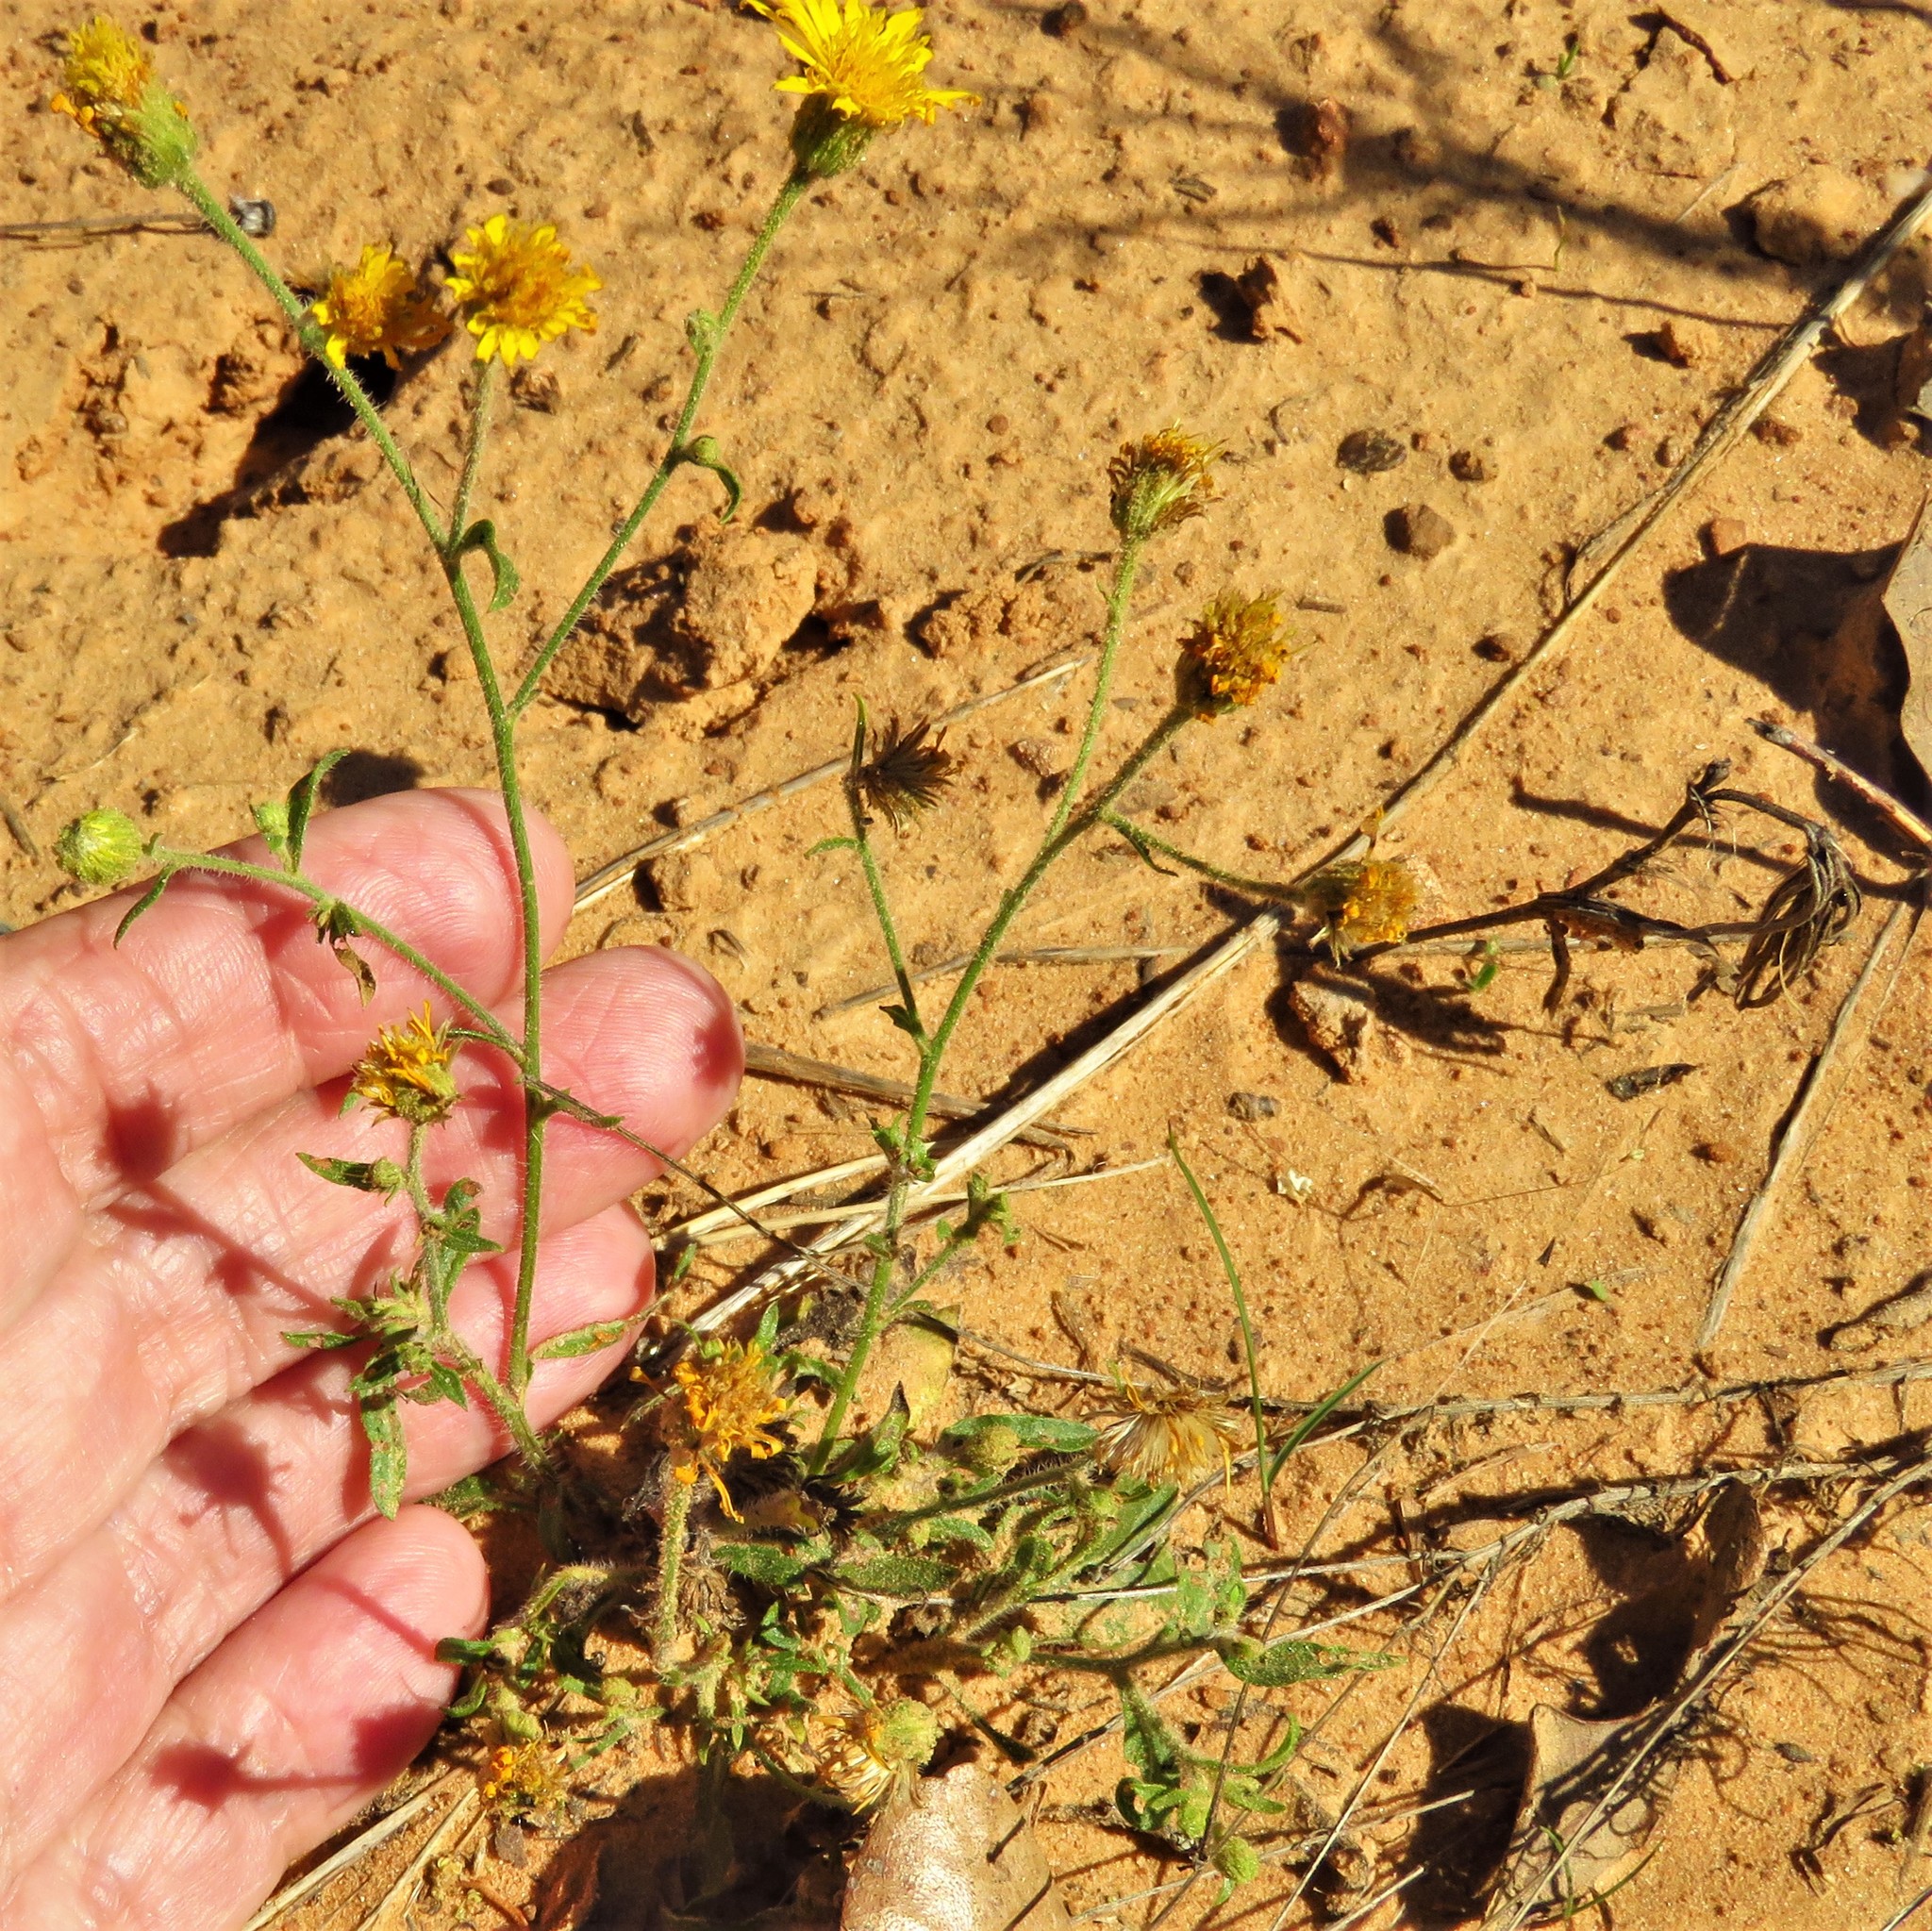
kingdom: Plantae
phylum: Tracheophyta
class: Magnoliopsida
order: Asterales
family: Asteraceae
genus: Heterotheca
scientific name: Heterotheca subaxillaris
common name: Camphorweed
